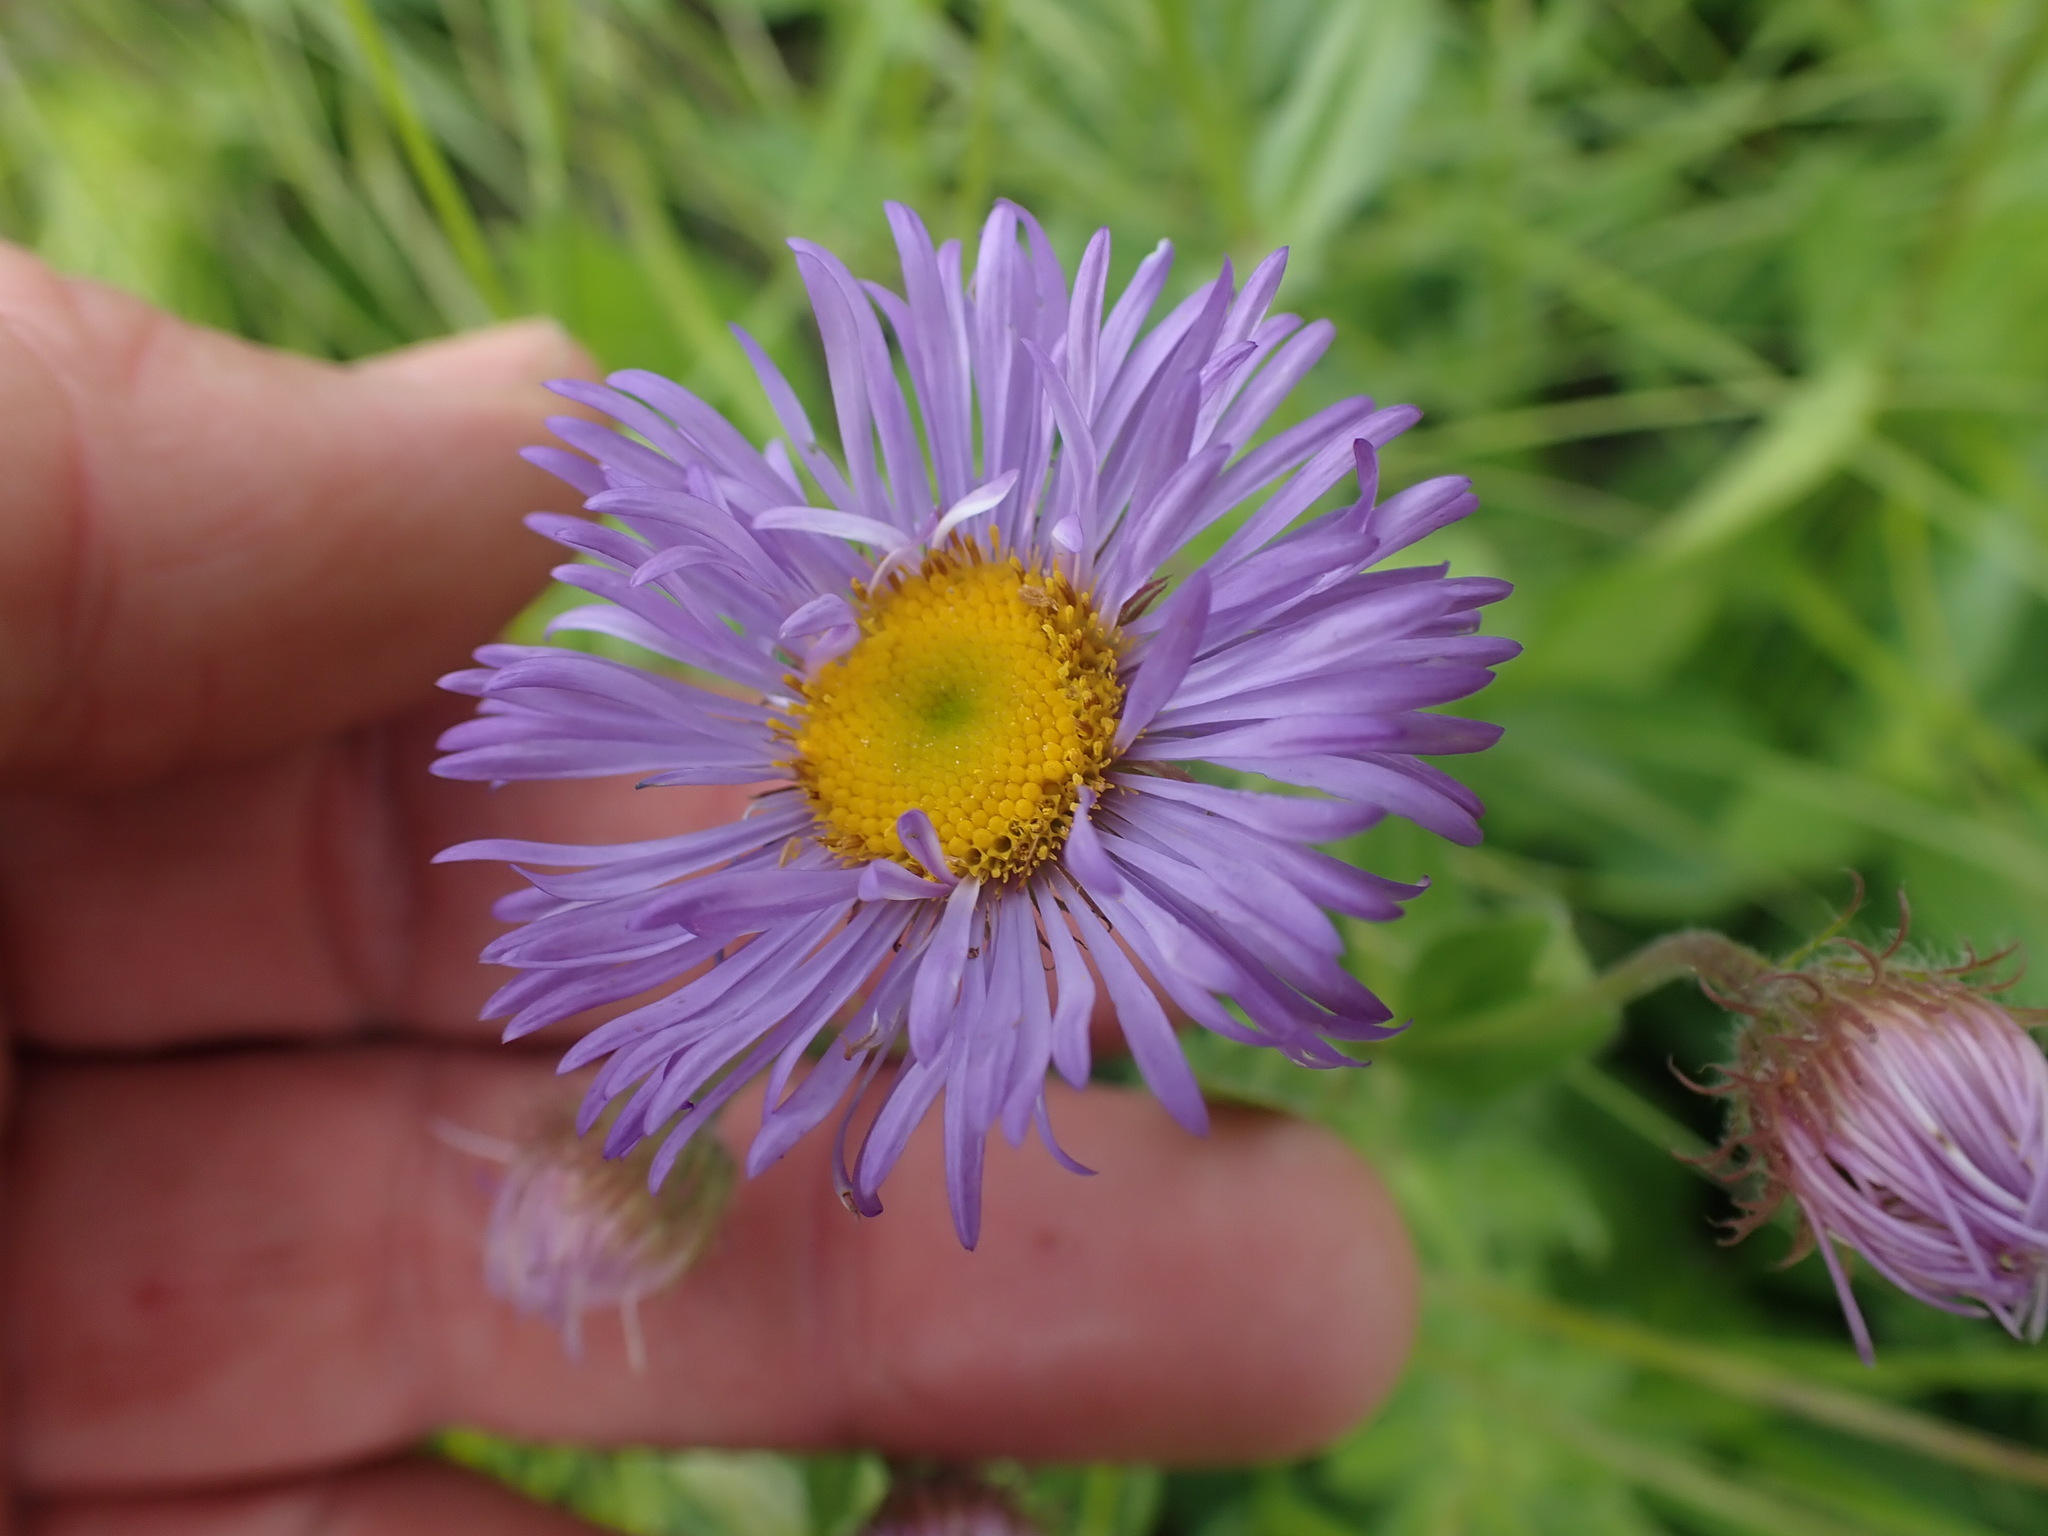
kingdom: Plantae
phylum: Tracheophyta
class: Magnoliopsida
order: Asterales
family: Asteraceae
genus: Erigeron
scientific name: Erigeron speciosus
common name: Aspen fleabane
